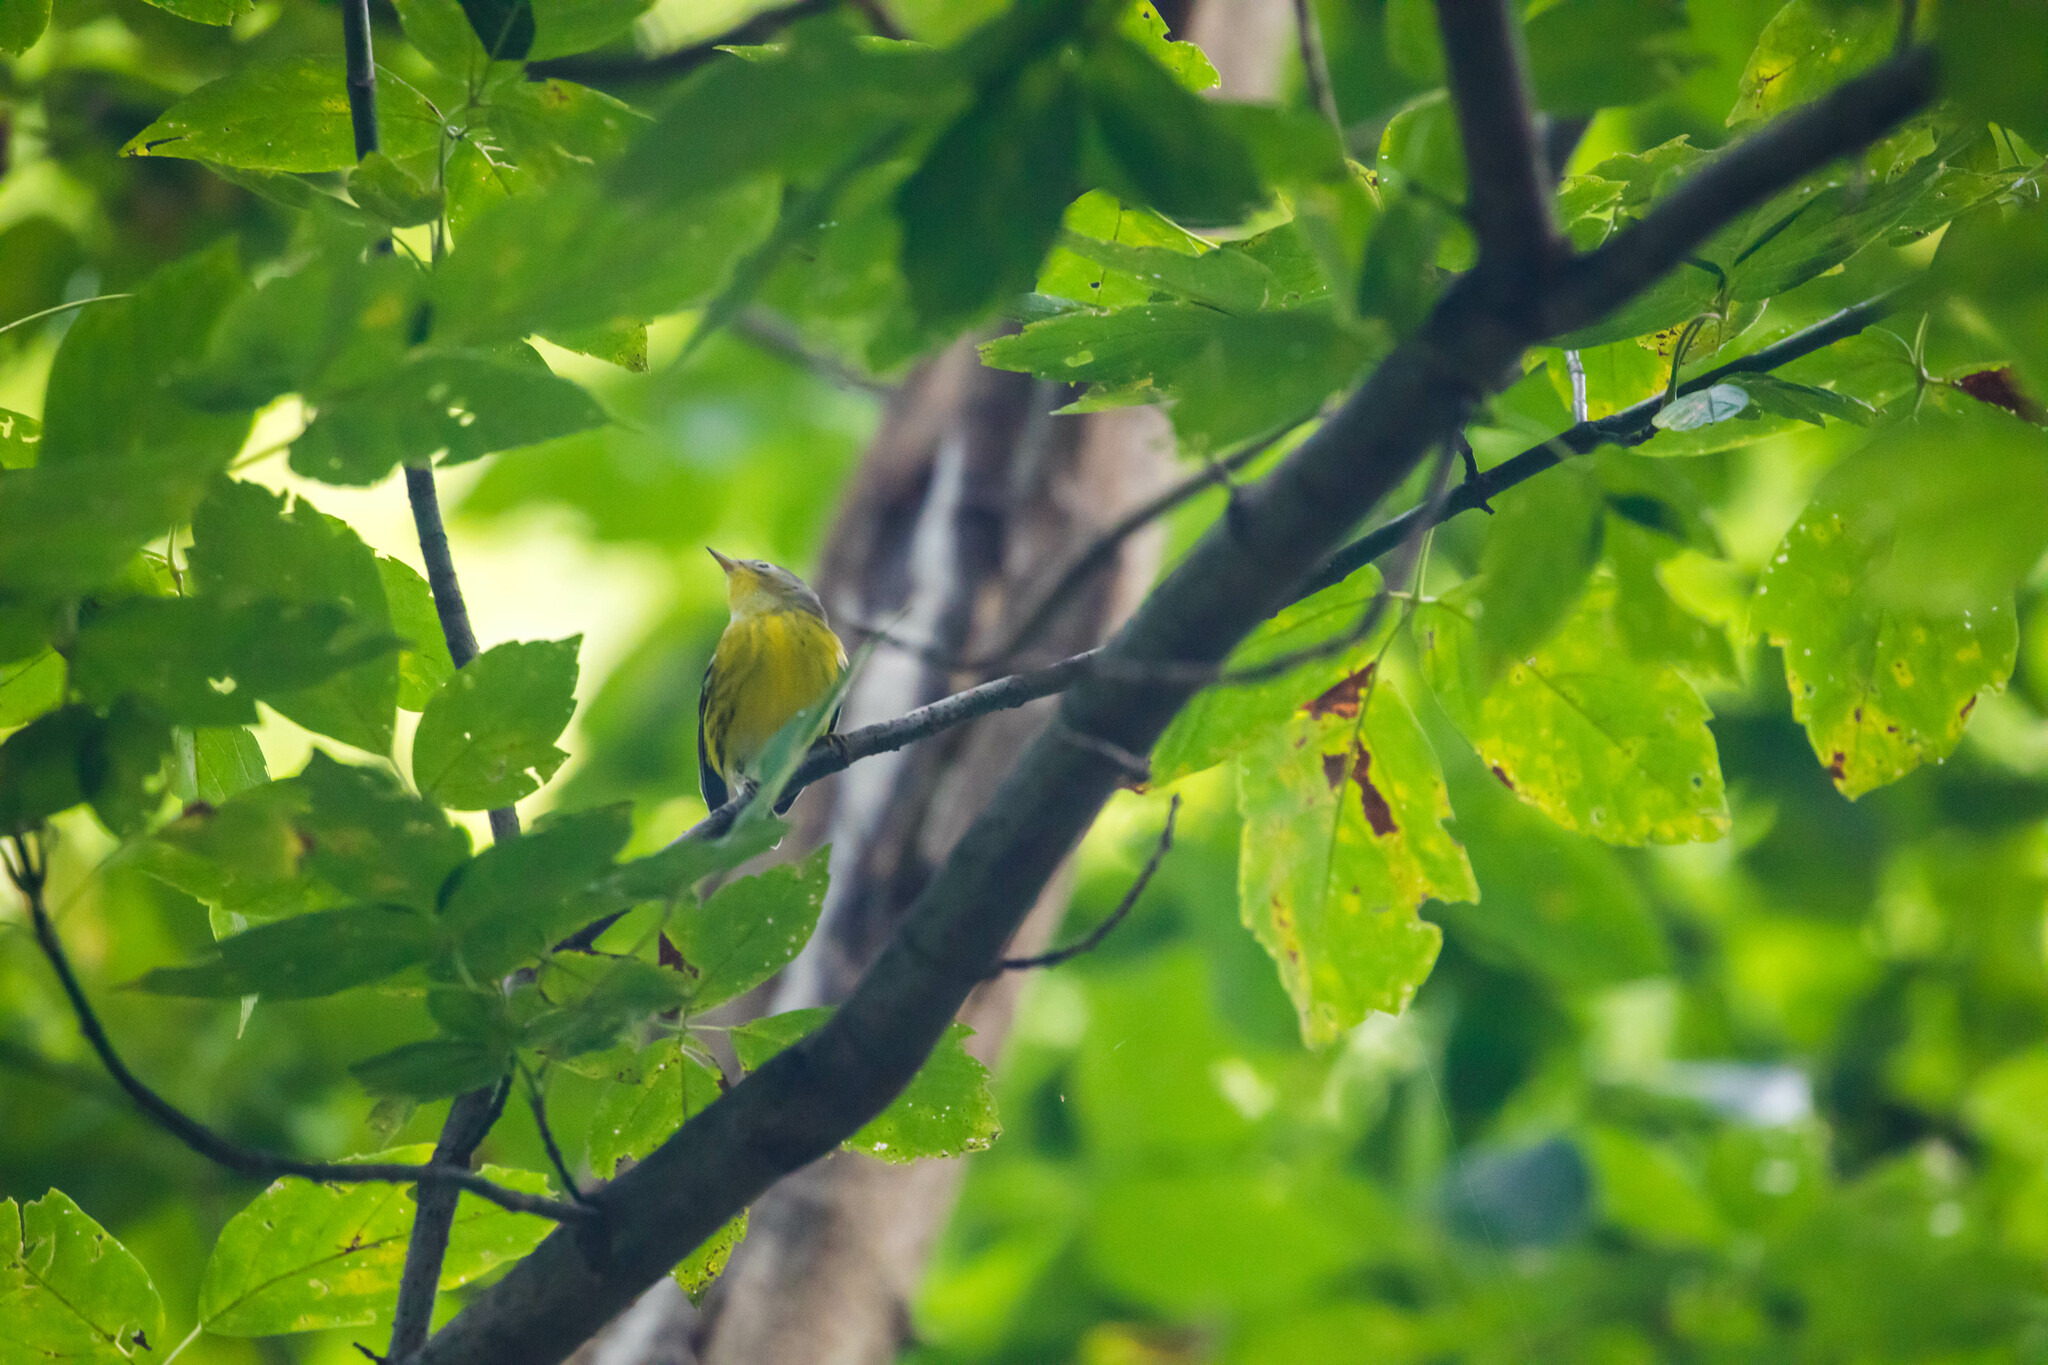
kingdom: Animalia
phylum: Chordata
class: Aves
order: Passeriformes
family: Parulidae
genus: Setophaga
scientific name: Setophaga magnolia
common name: Magnolia warbler
